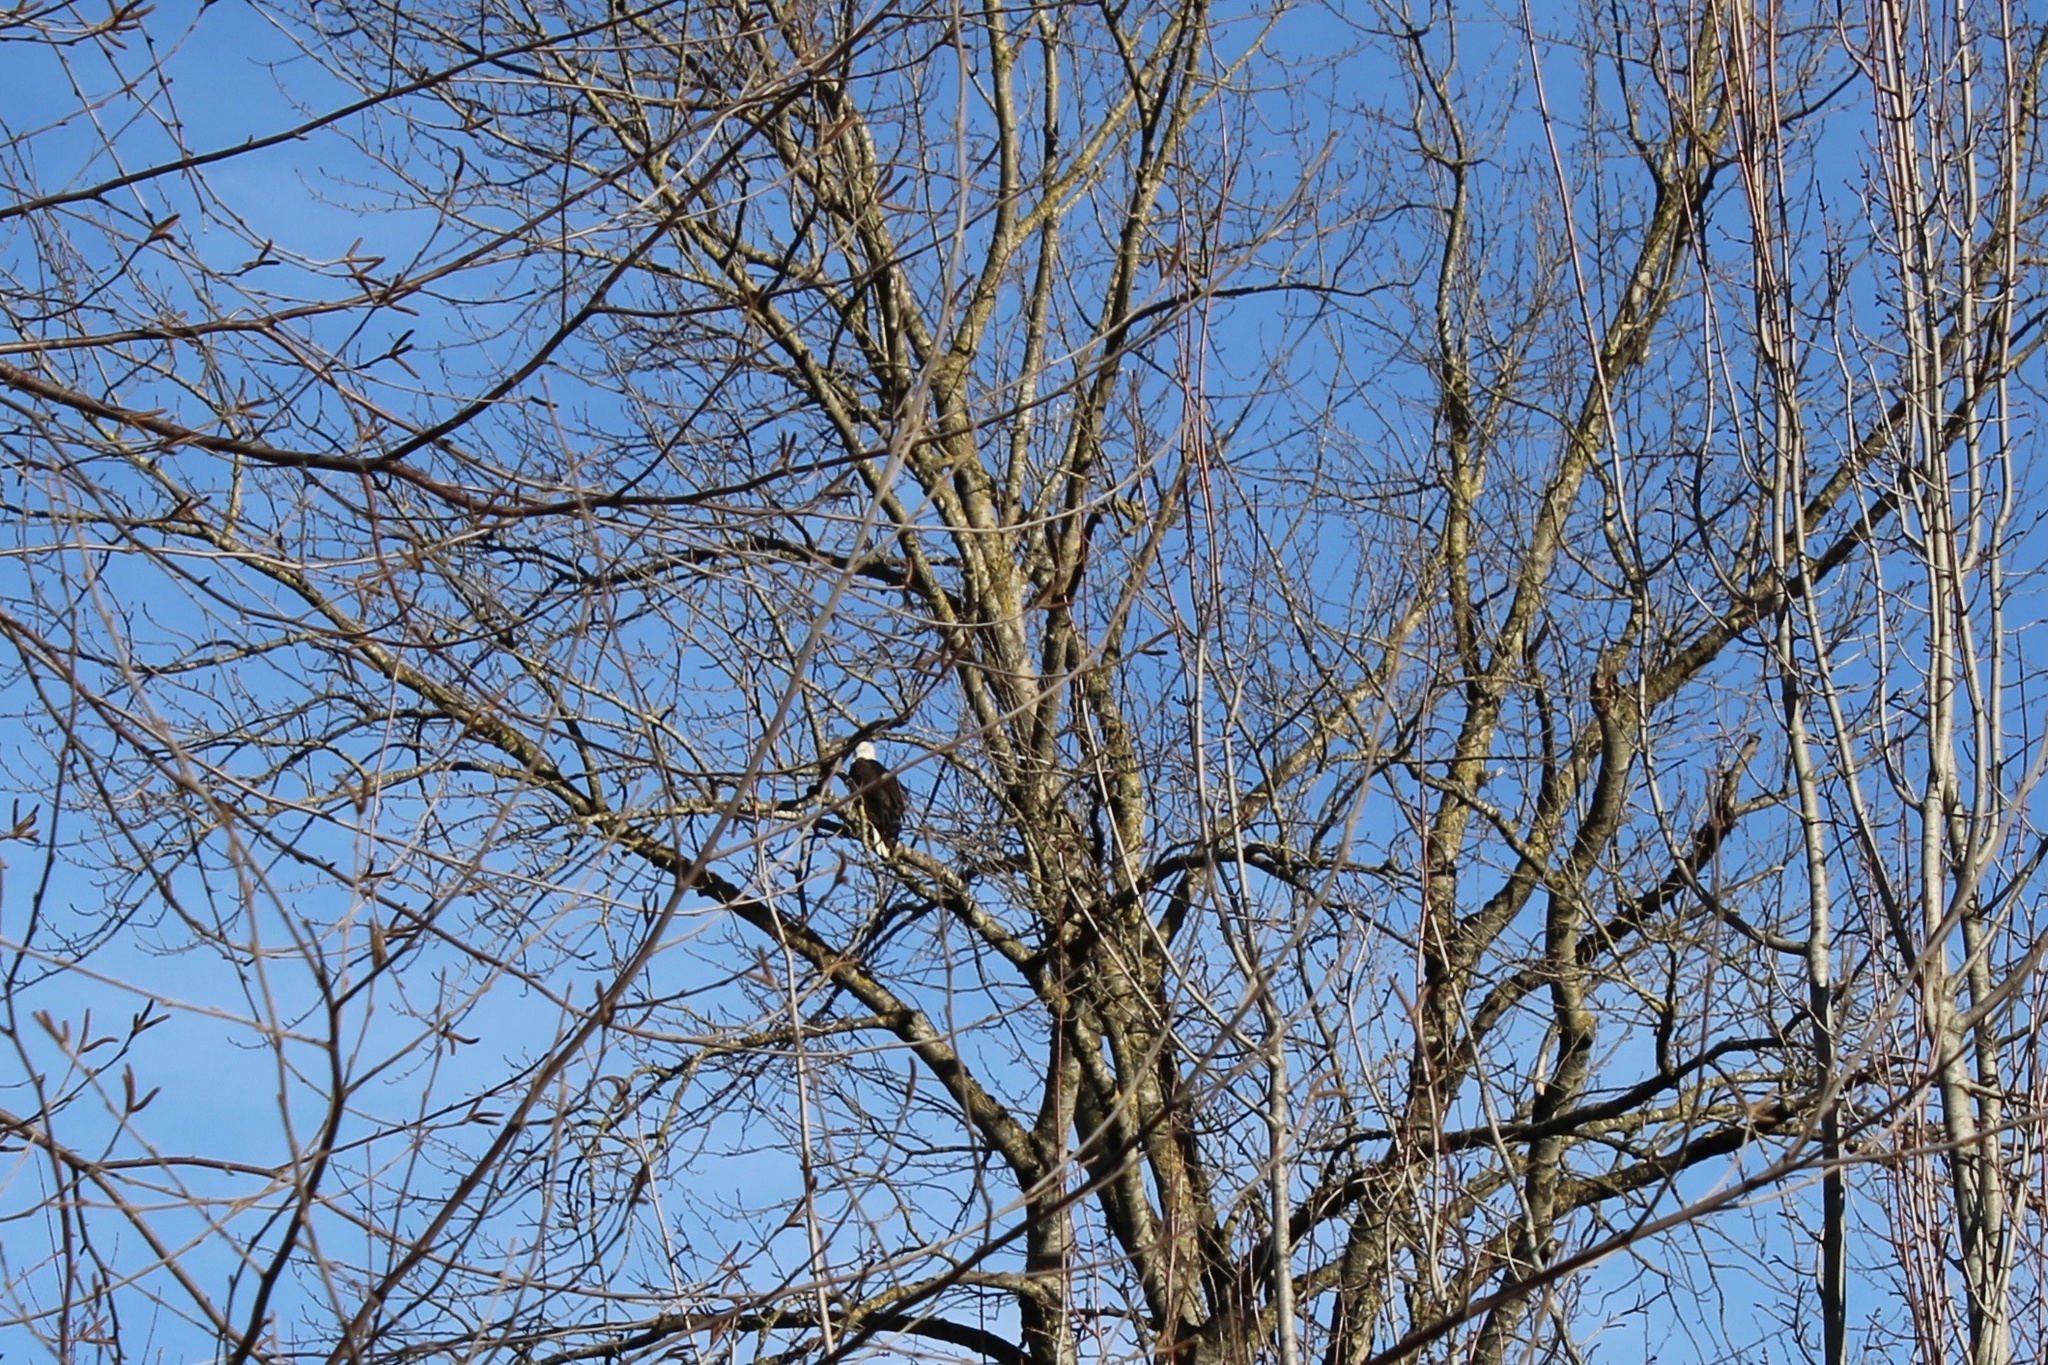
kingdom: Animalia
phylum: Chordata
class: Aves
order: Accipitriformes
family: Accipitridae
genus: Haliaeetus
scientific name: Haliaeetus leucocephalus
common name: Bald eagle
